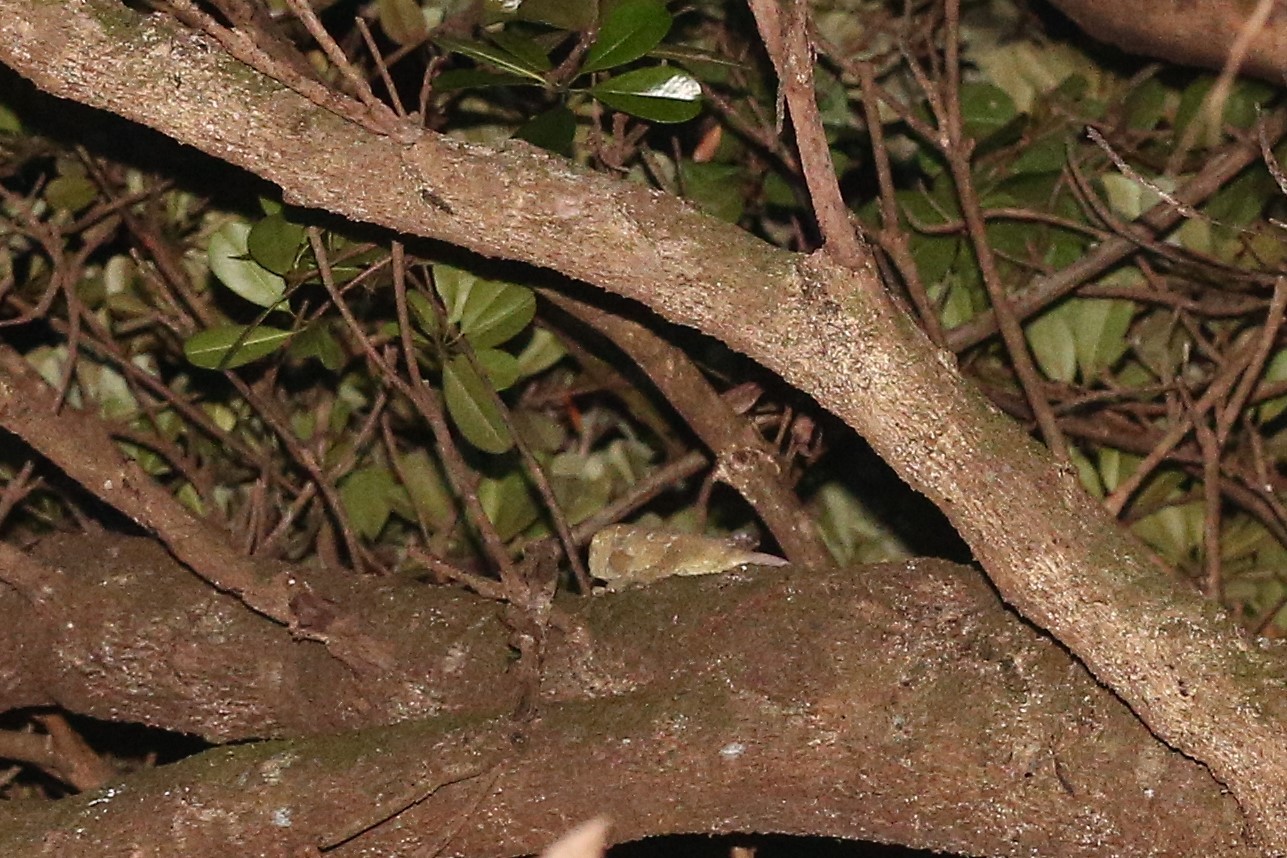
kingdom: Animalia
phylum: Chordata
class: Squamata
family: Diplodactylidae
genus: Rhacodactylus
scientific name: Rhacodactylus leachianus
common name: New caledonia giant gecko
